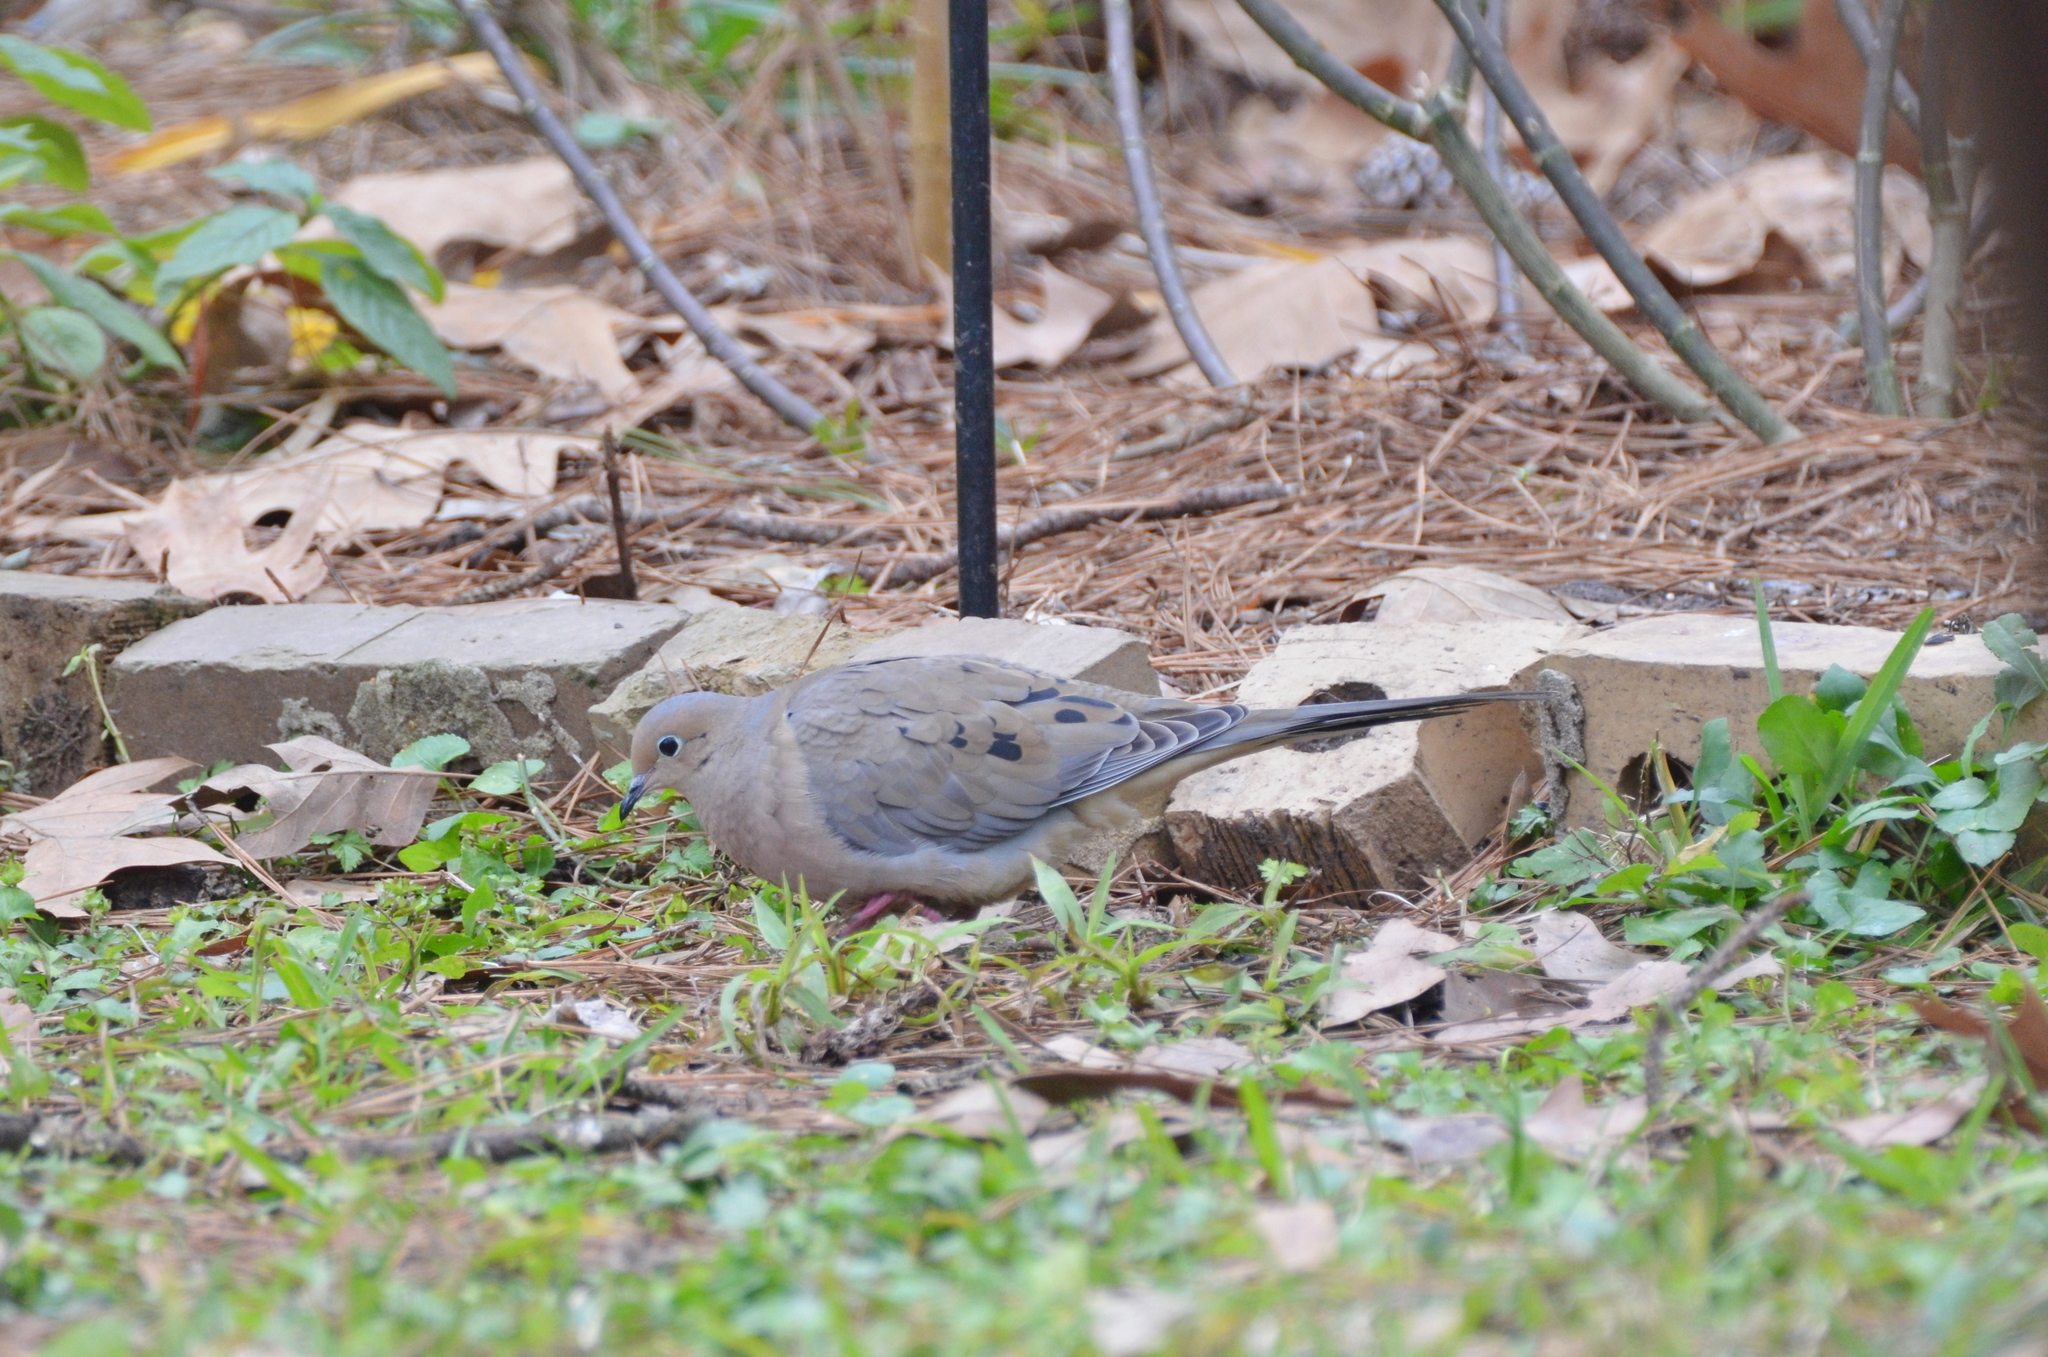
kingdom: Animalia
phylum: Chordata
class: Aves
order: Columbiformes
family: Columbidae
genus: Zenaida
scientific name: Zenaida macroura
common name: Mourning dove
